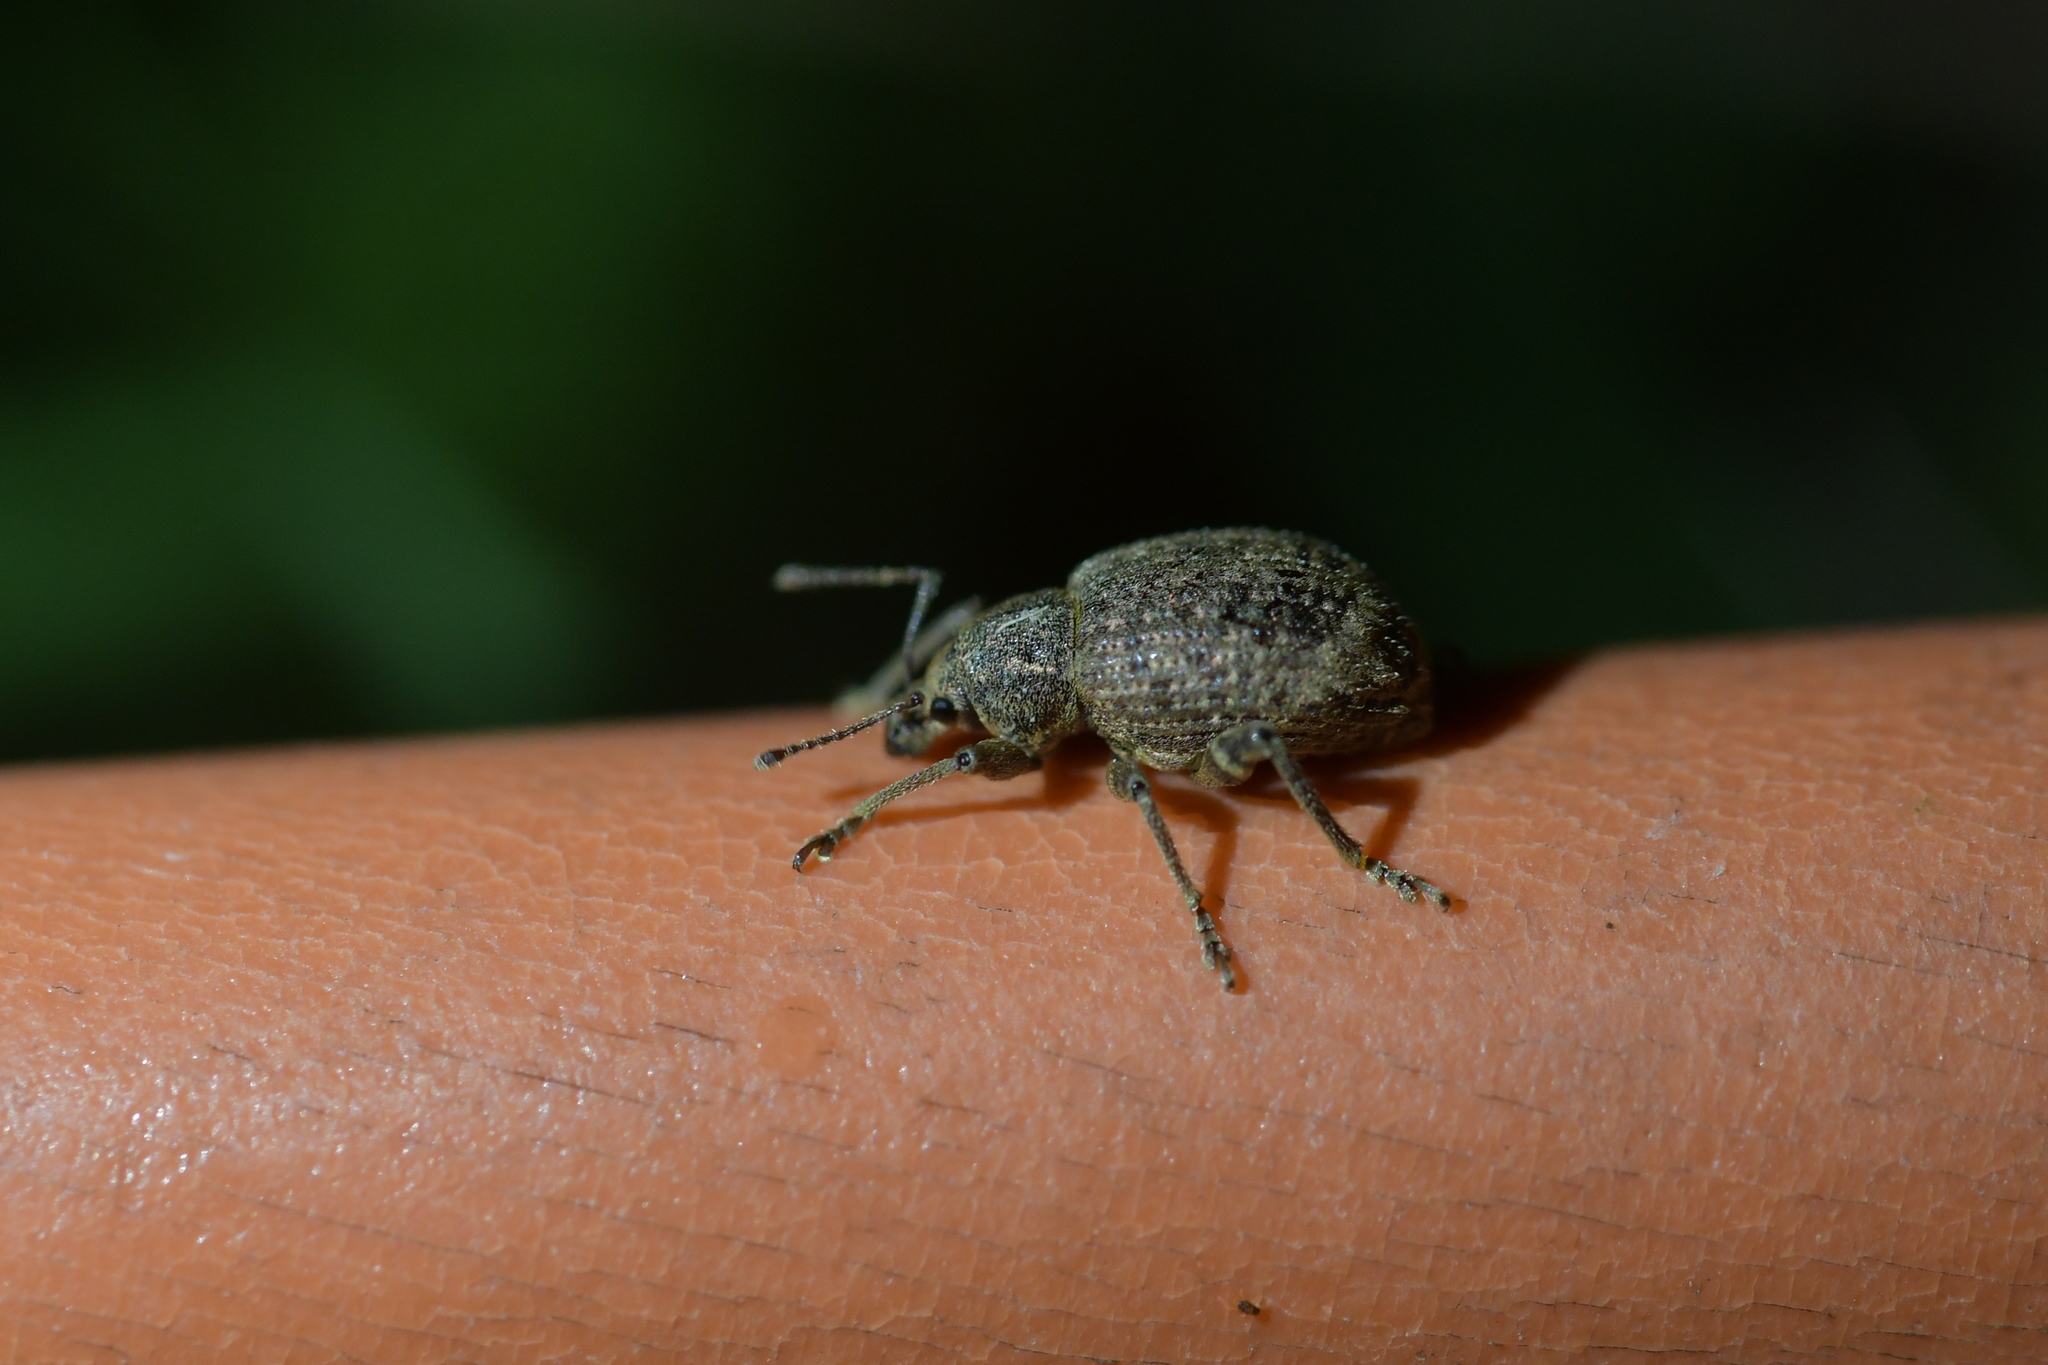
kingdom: Animalia
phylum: Arthropoda
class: Insecta
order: Coleoptera
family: Curculionidae
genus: Phlyctinus
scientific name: Phlyctinus callosus
